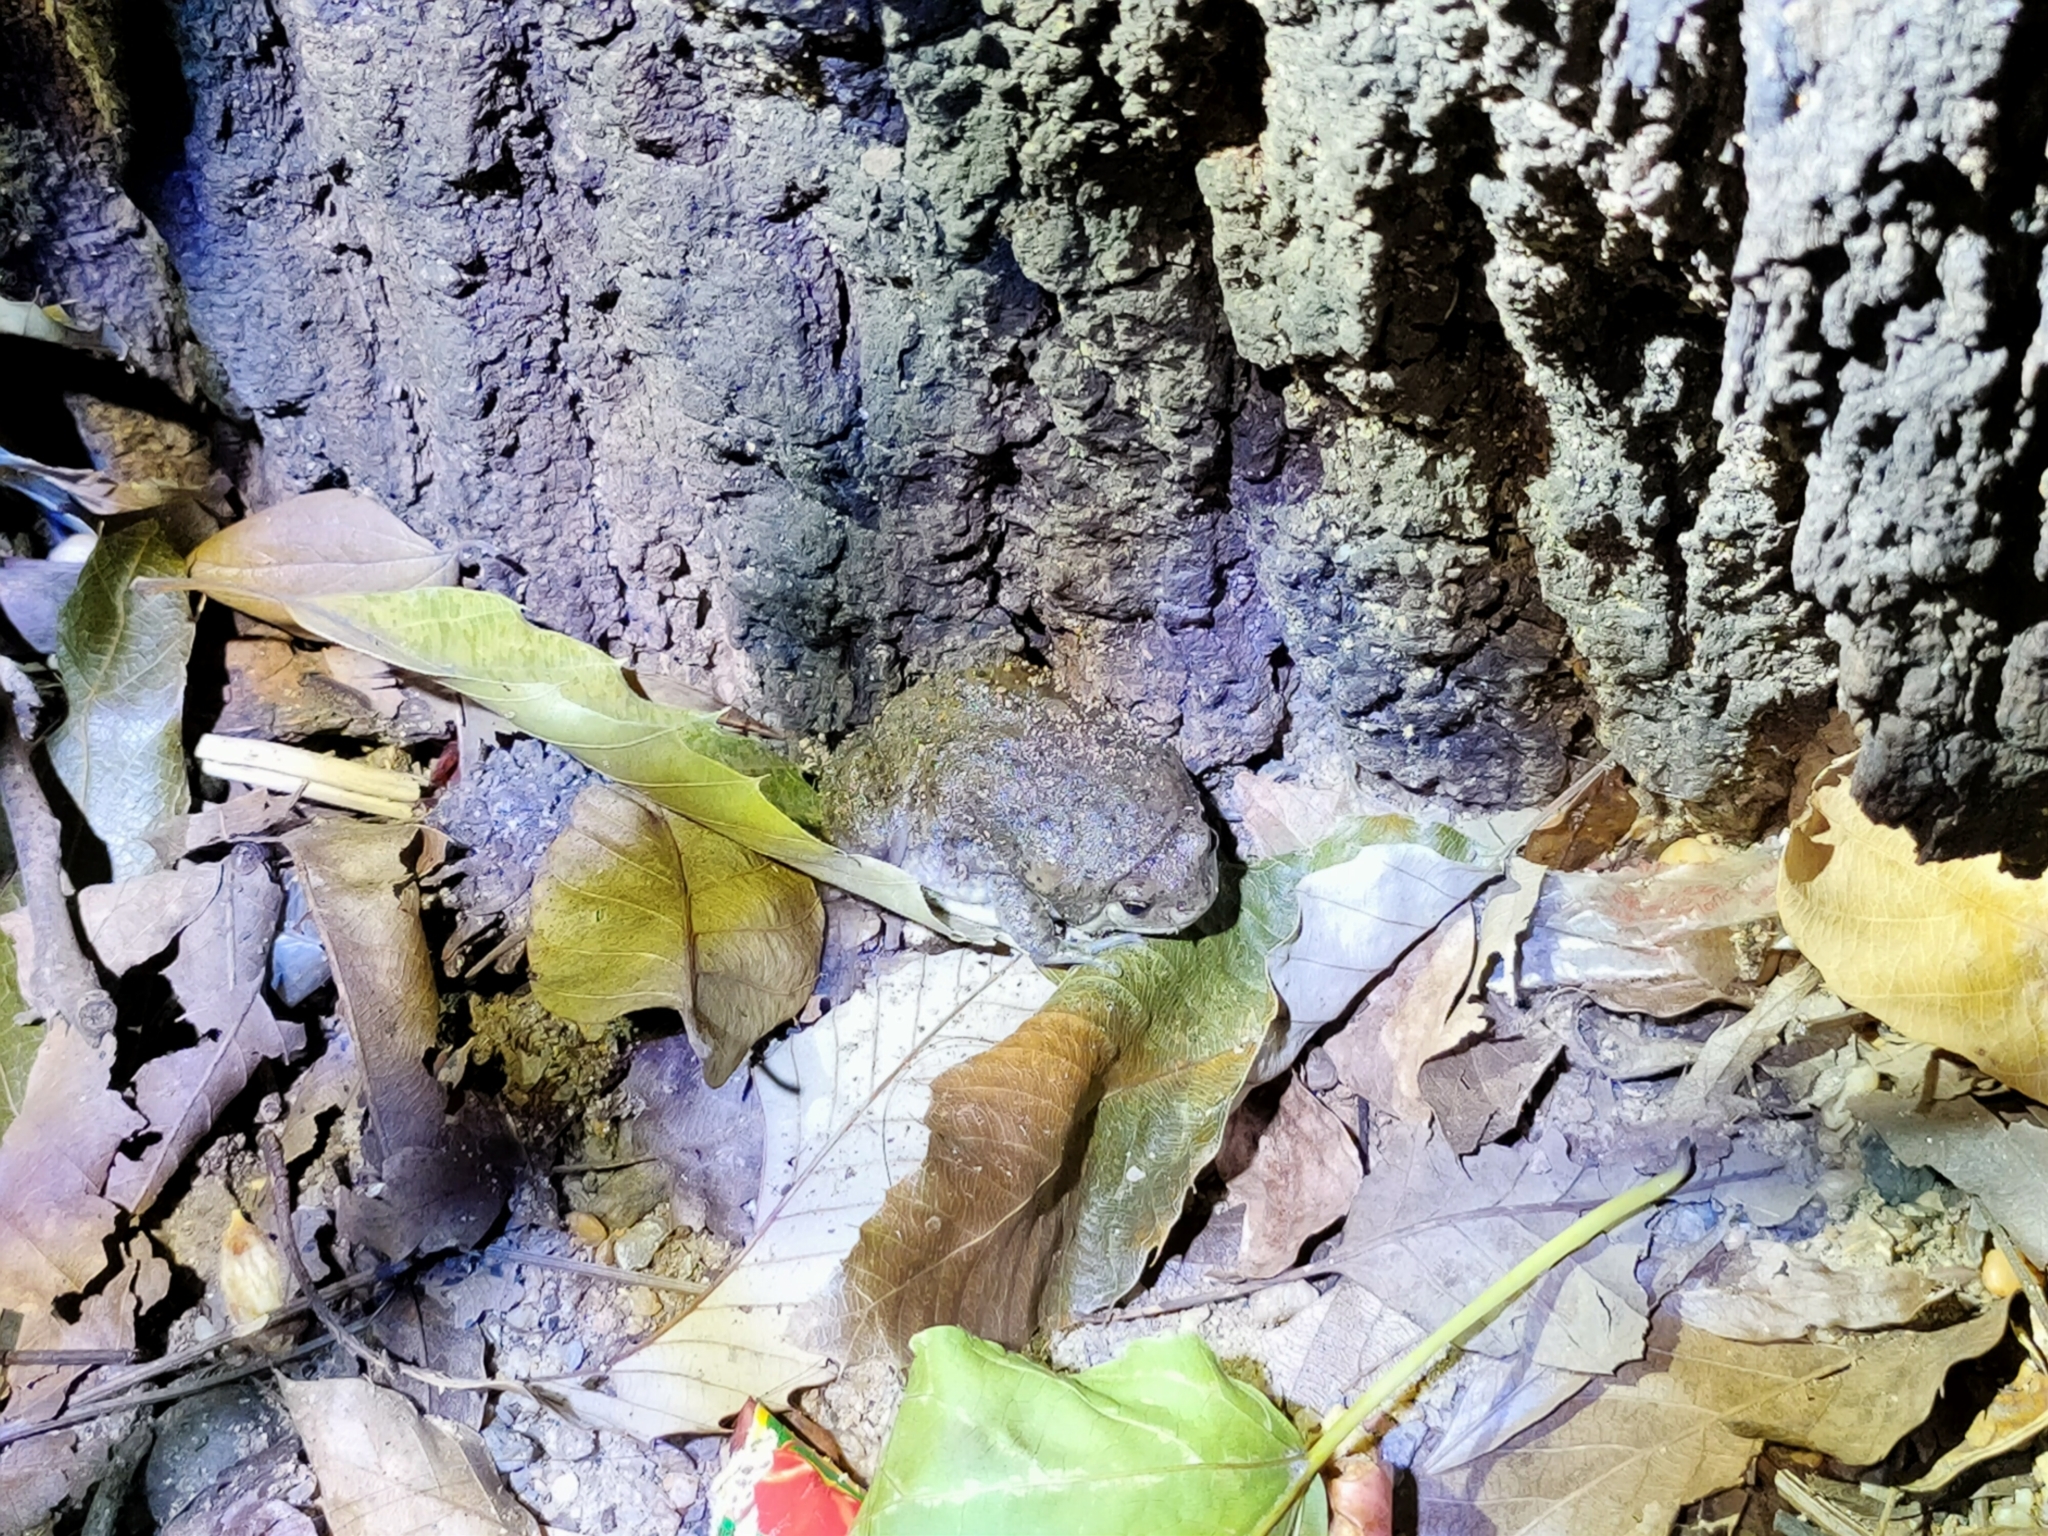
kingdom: Animalia
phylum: Chordata
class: Amphibia
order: Anura
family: Microhylidae
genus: Kaloula
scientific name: Kaloula borealis
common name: Boreal digging frog
